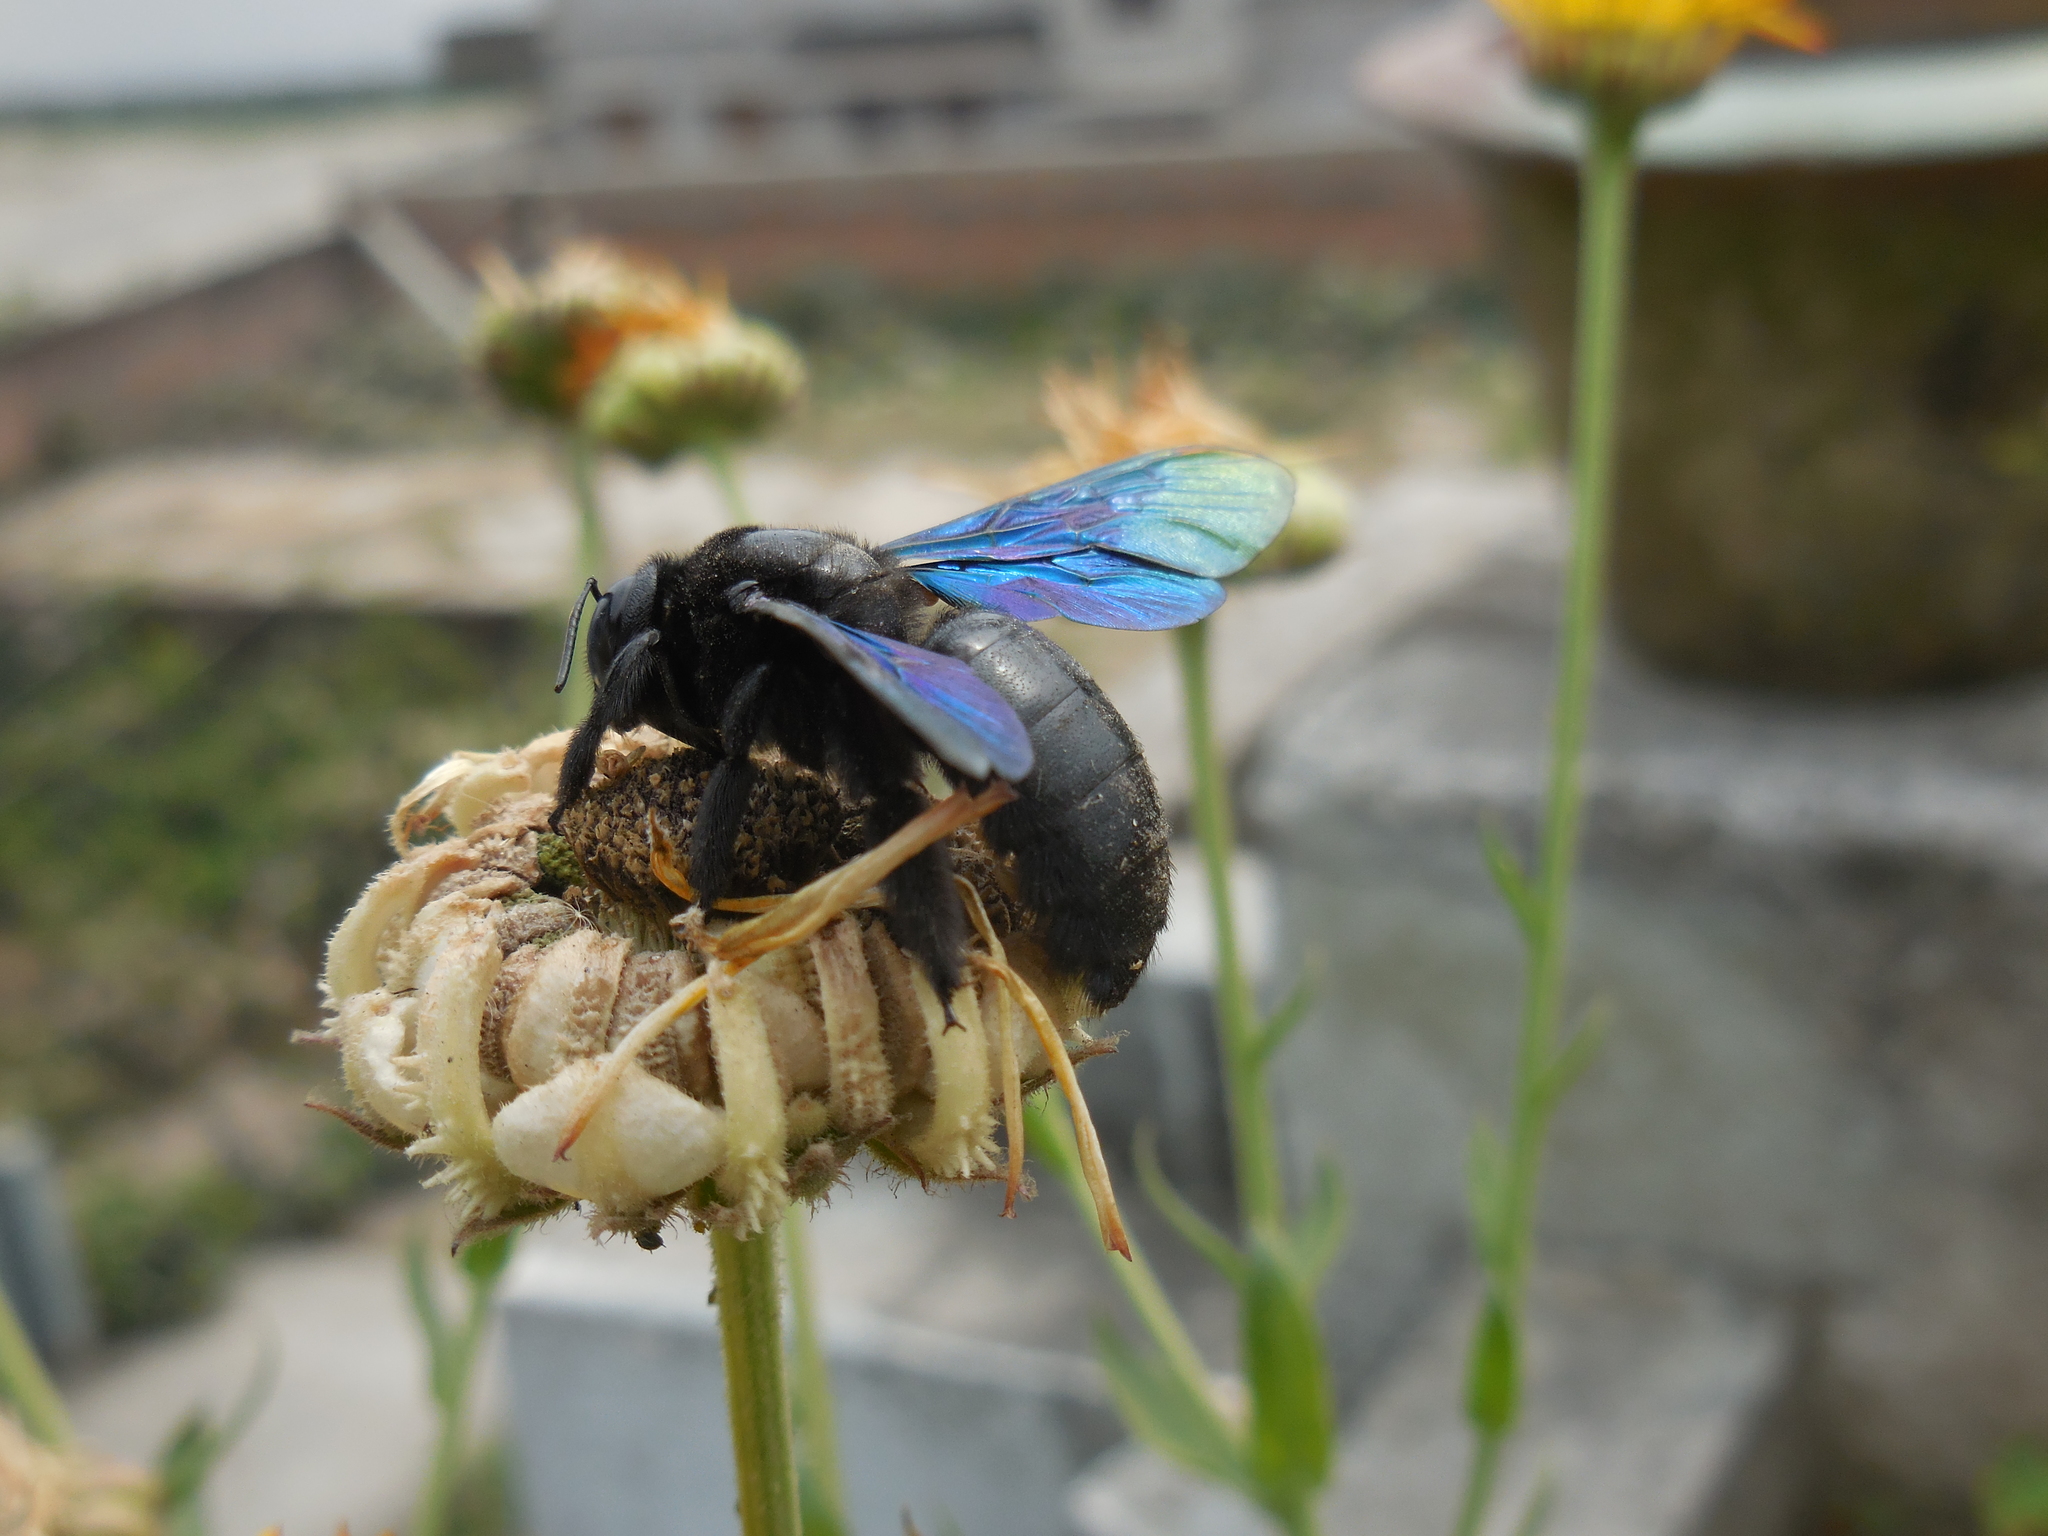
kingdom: Animalia
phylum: Arthropoda
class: Insecta
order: Hymenoptera
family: Apidae
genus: Xylocopa
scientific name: Xylocopa auripennis
